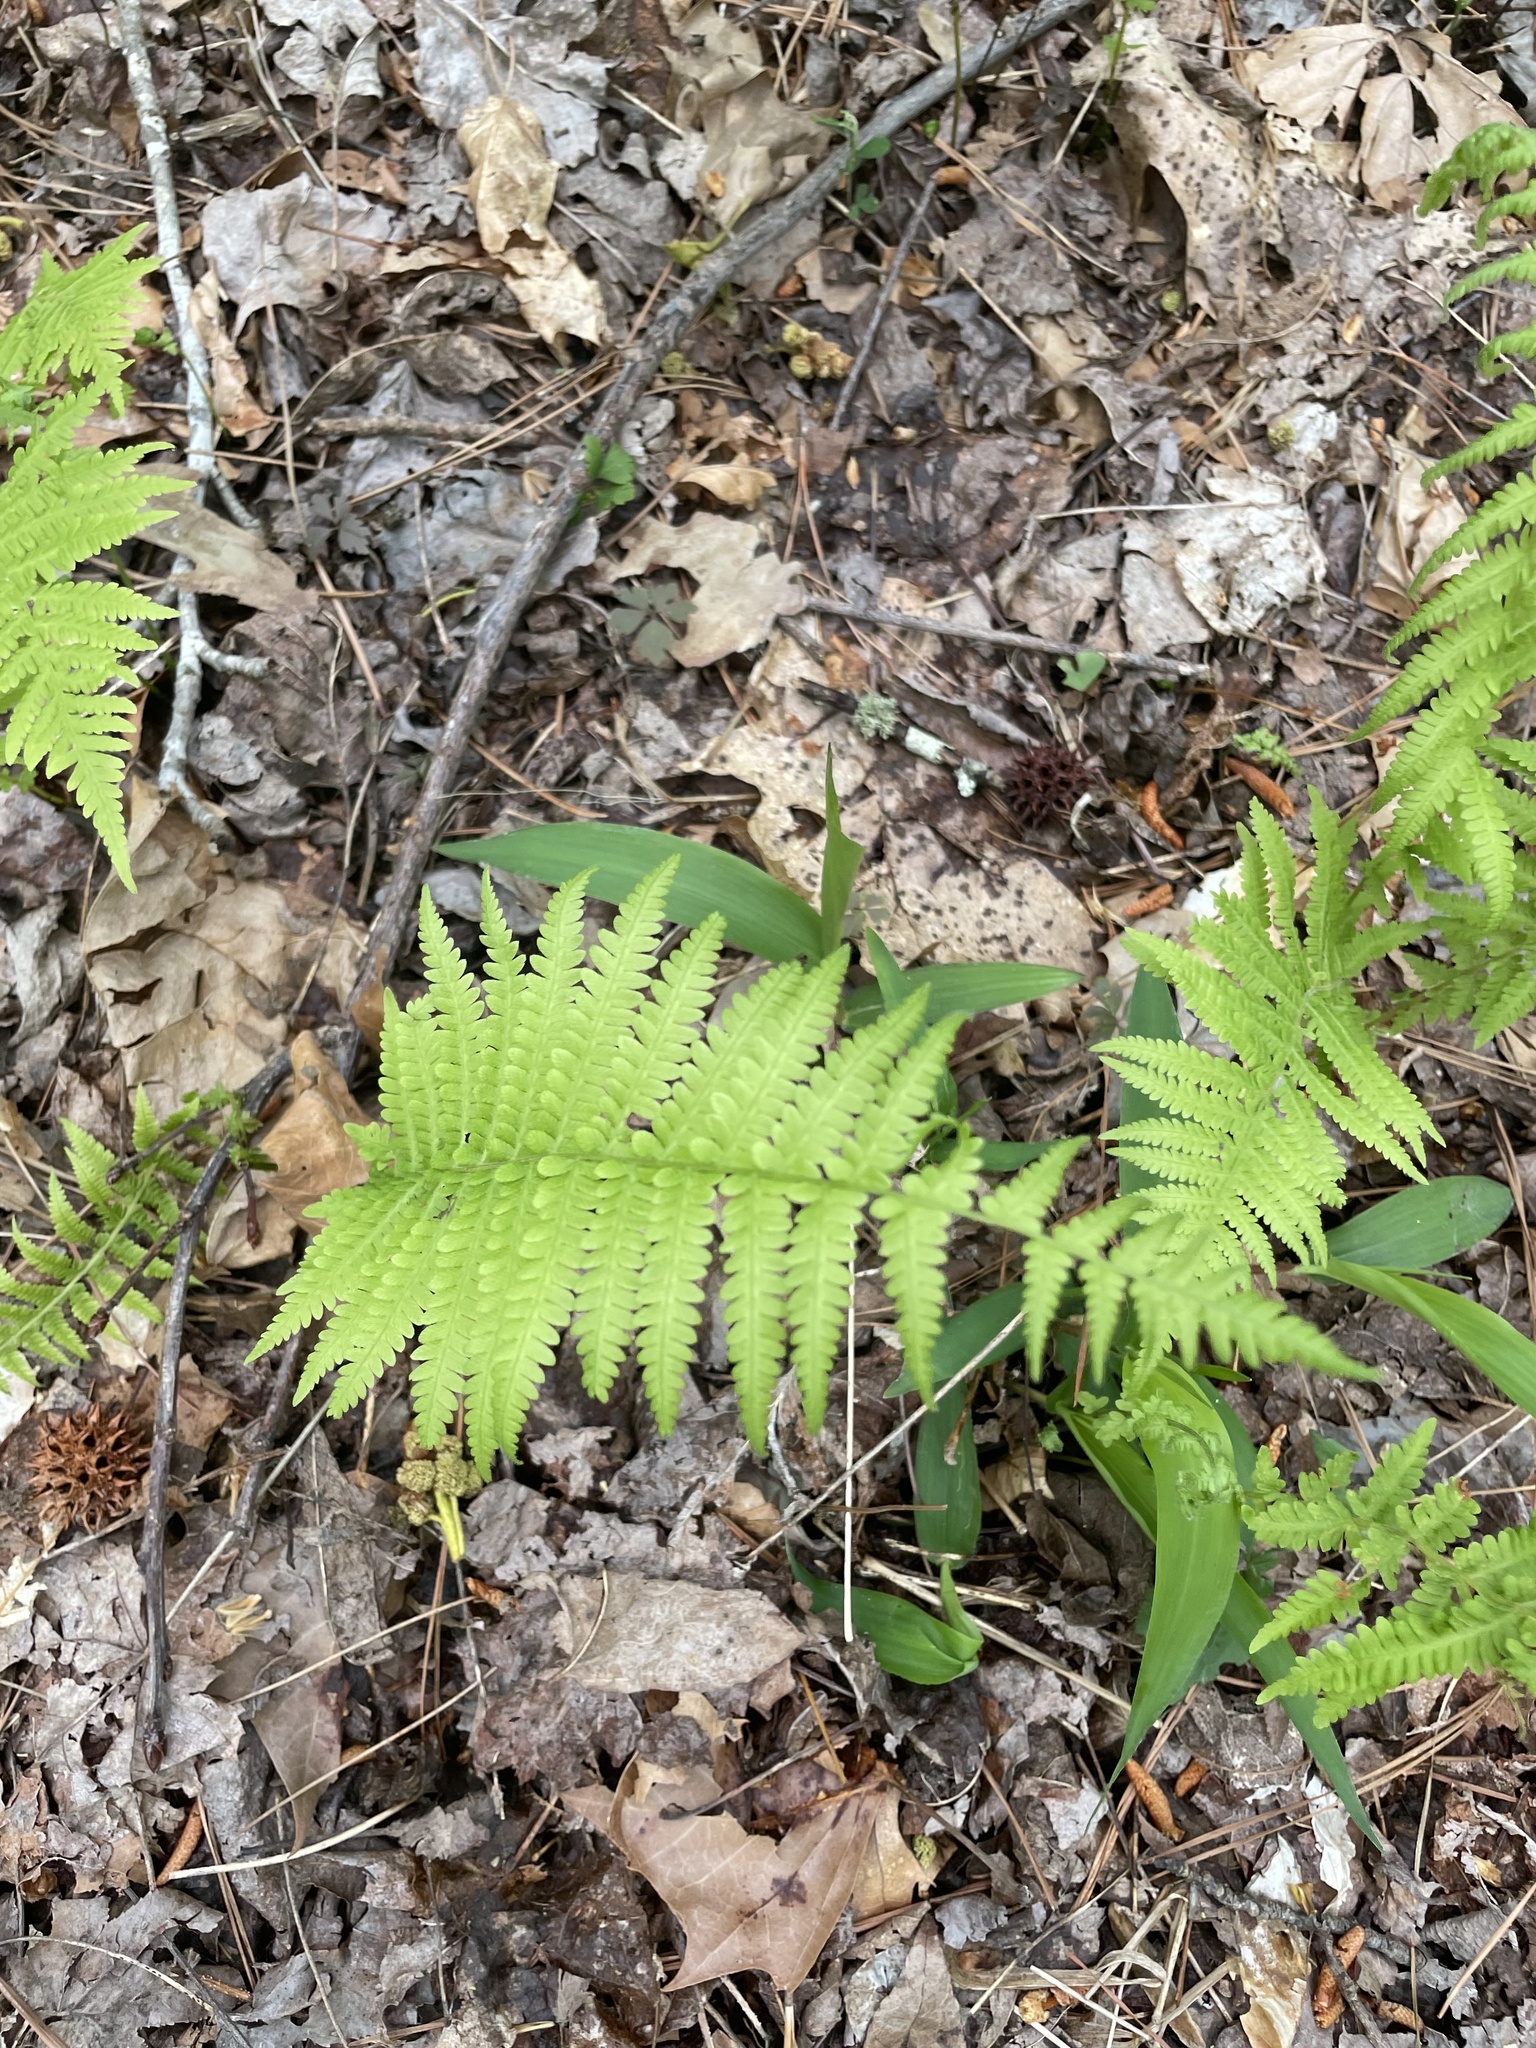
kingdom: Plantae
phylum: Tracheophyta
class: Polypodiopsida
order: Polypodiales
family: Thelypteridaceae
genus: Amauropelta
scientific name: Amauropelta noveboracensis
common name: New york fern
